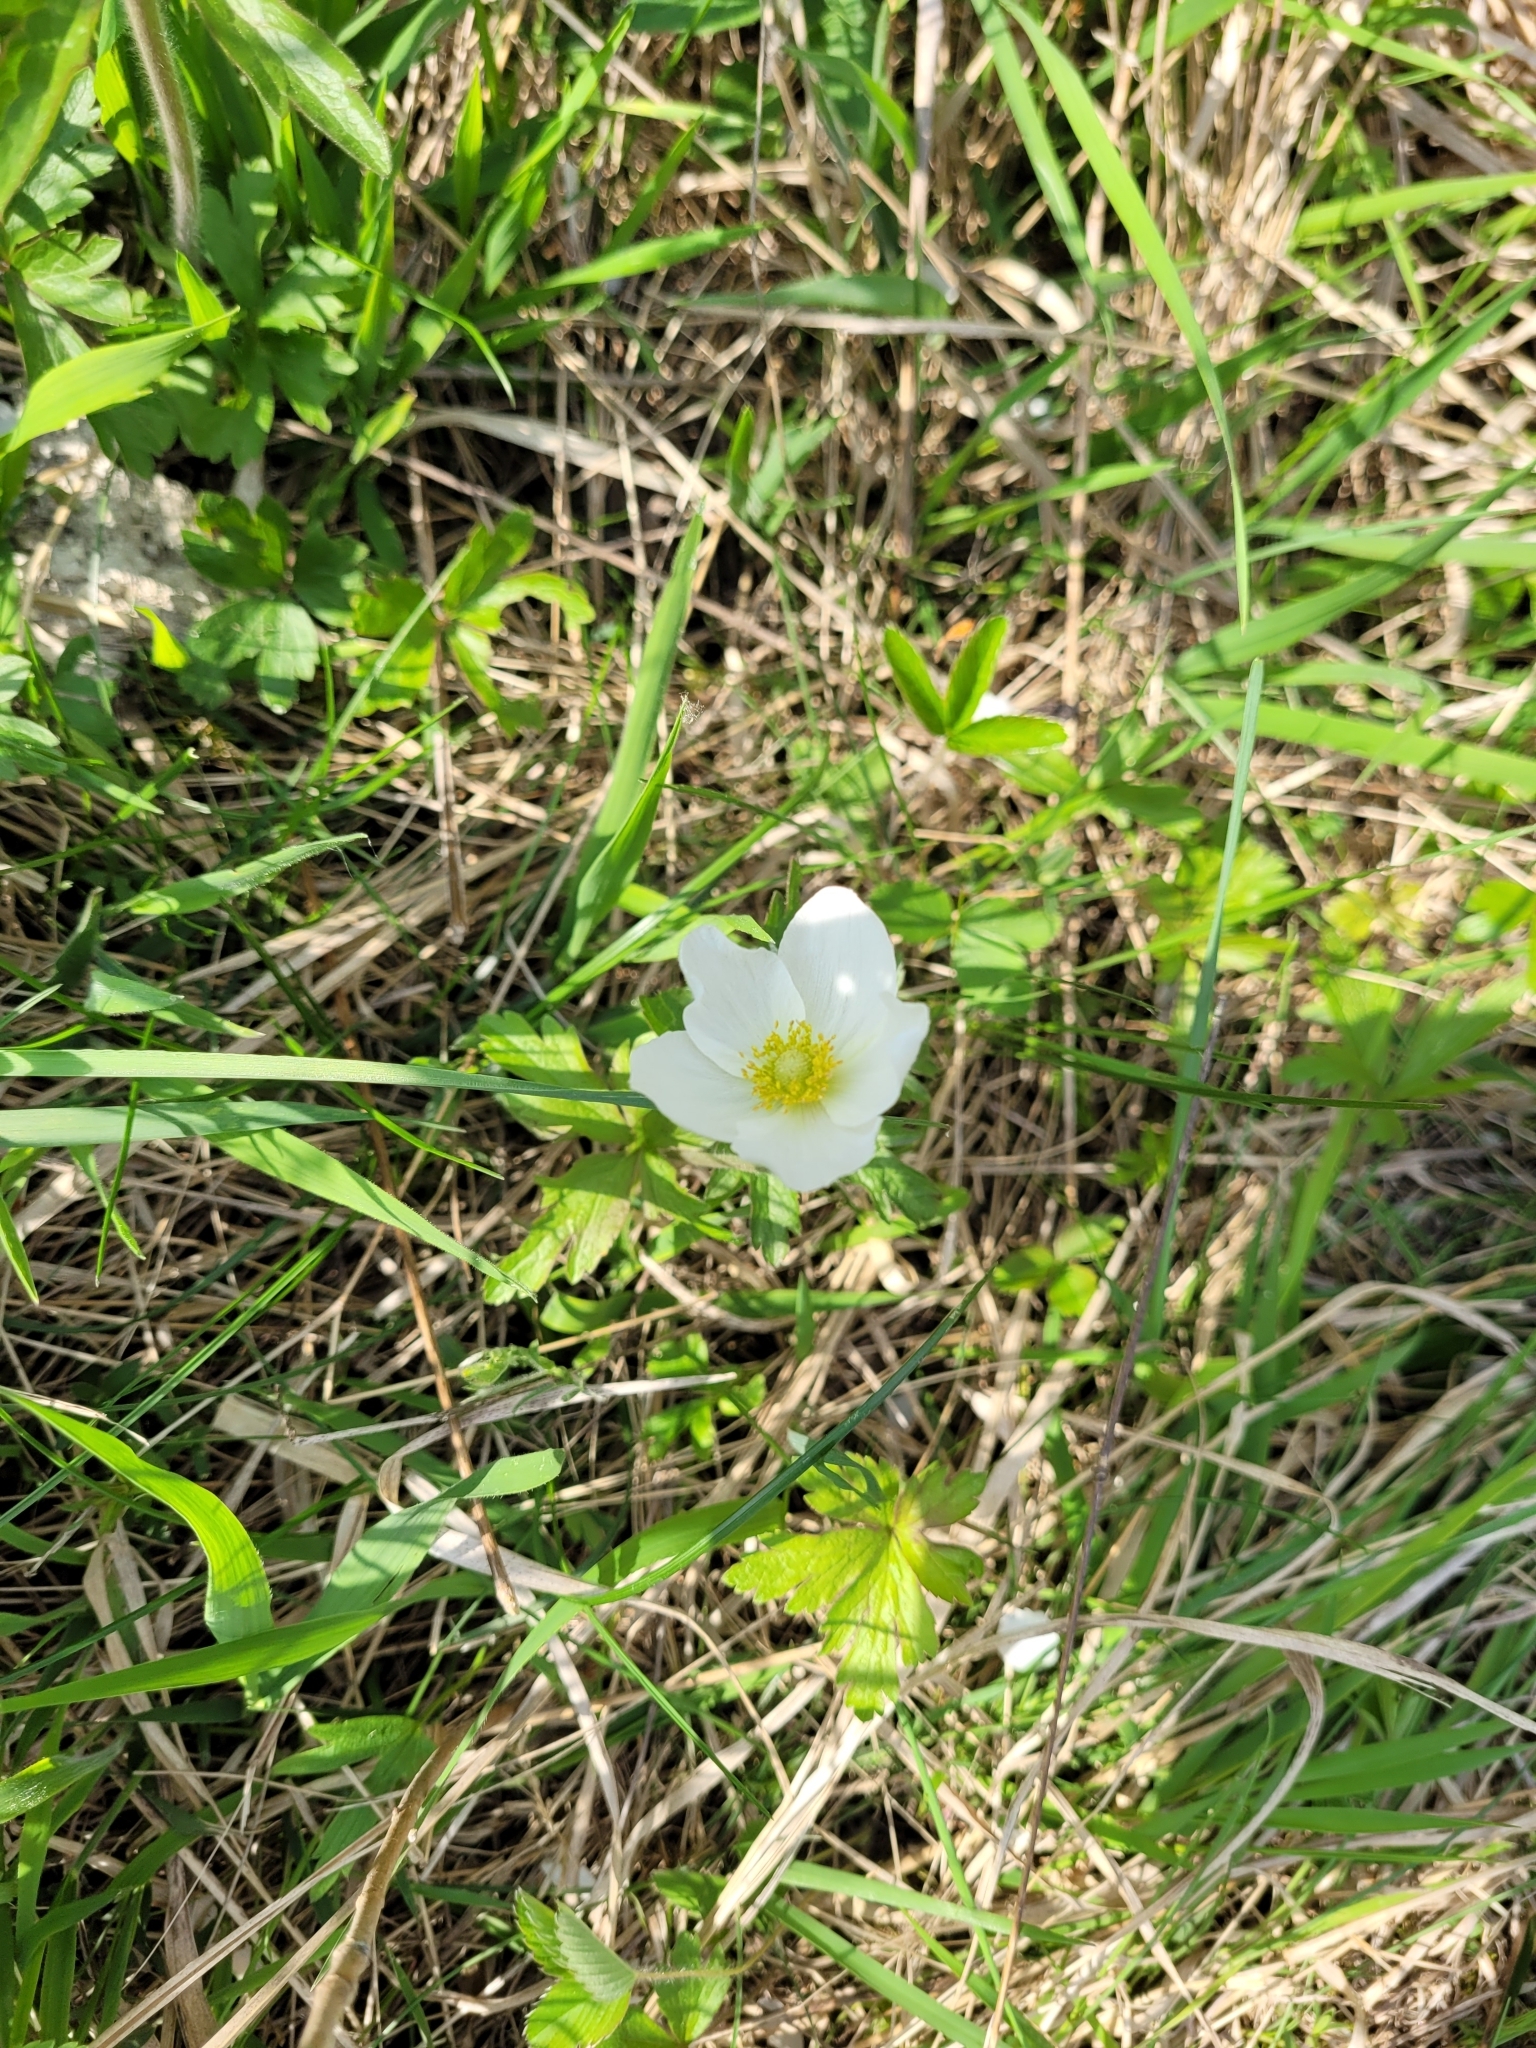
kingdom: Plantae
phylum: Tracheophyta
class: Magnoliopsida
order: Ranunculales
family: Ranunculaceae
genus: Anemone
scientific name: Anemone sylvestris
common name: Snowdrop anemone
